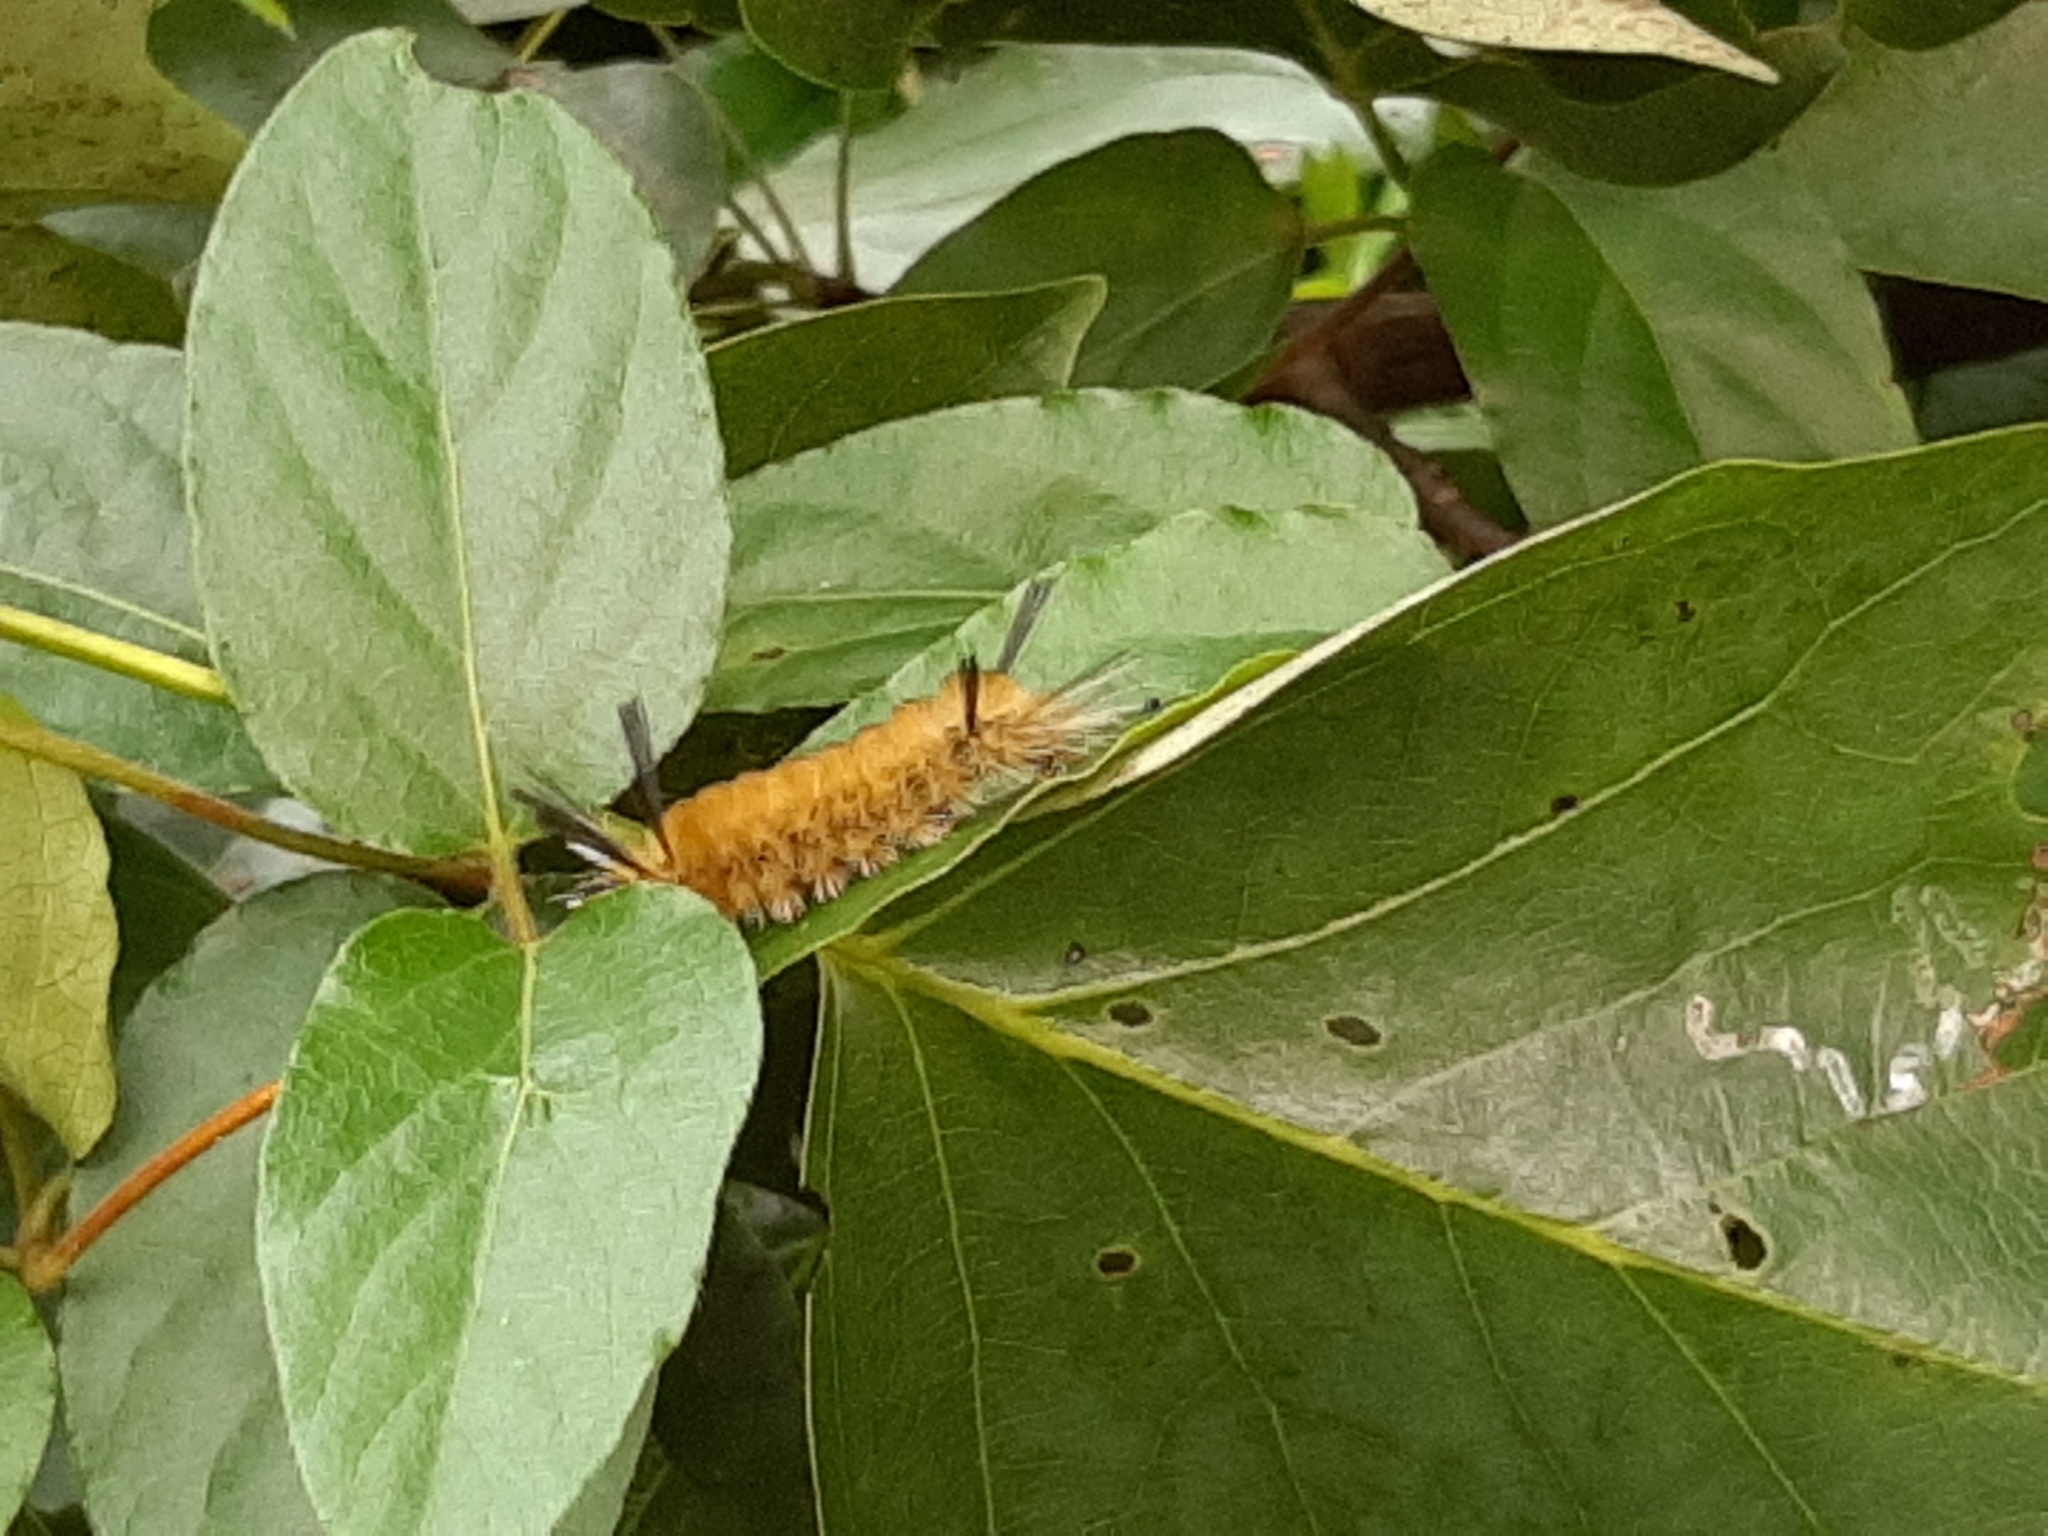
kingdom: Animalia
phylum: Arthropoda
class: Insecta
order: Lepidoptera
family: Erebidae
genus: Halysidota
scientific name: Halysidota tessellaris
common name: Banded tussock moth
